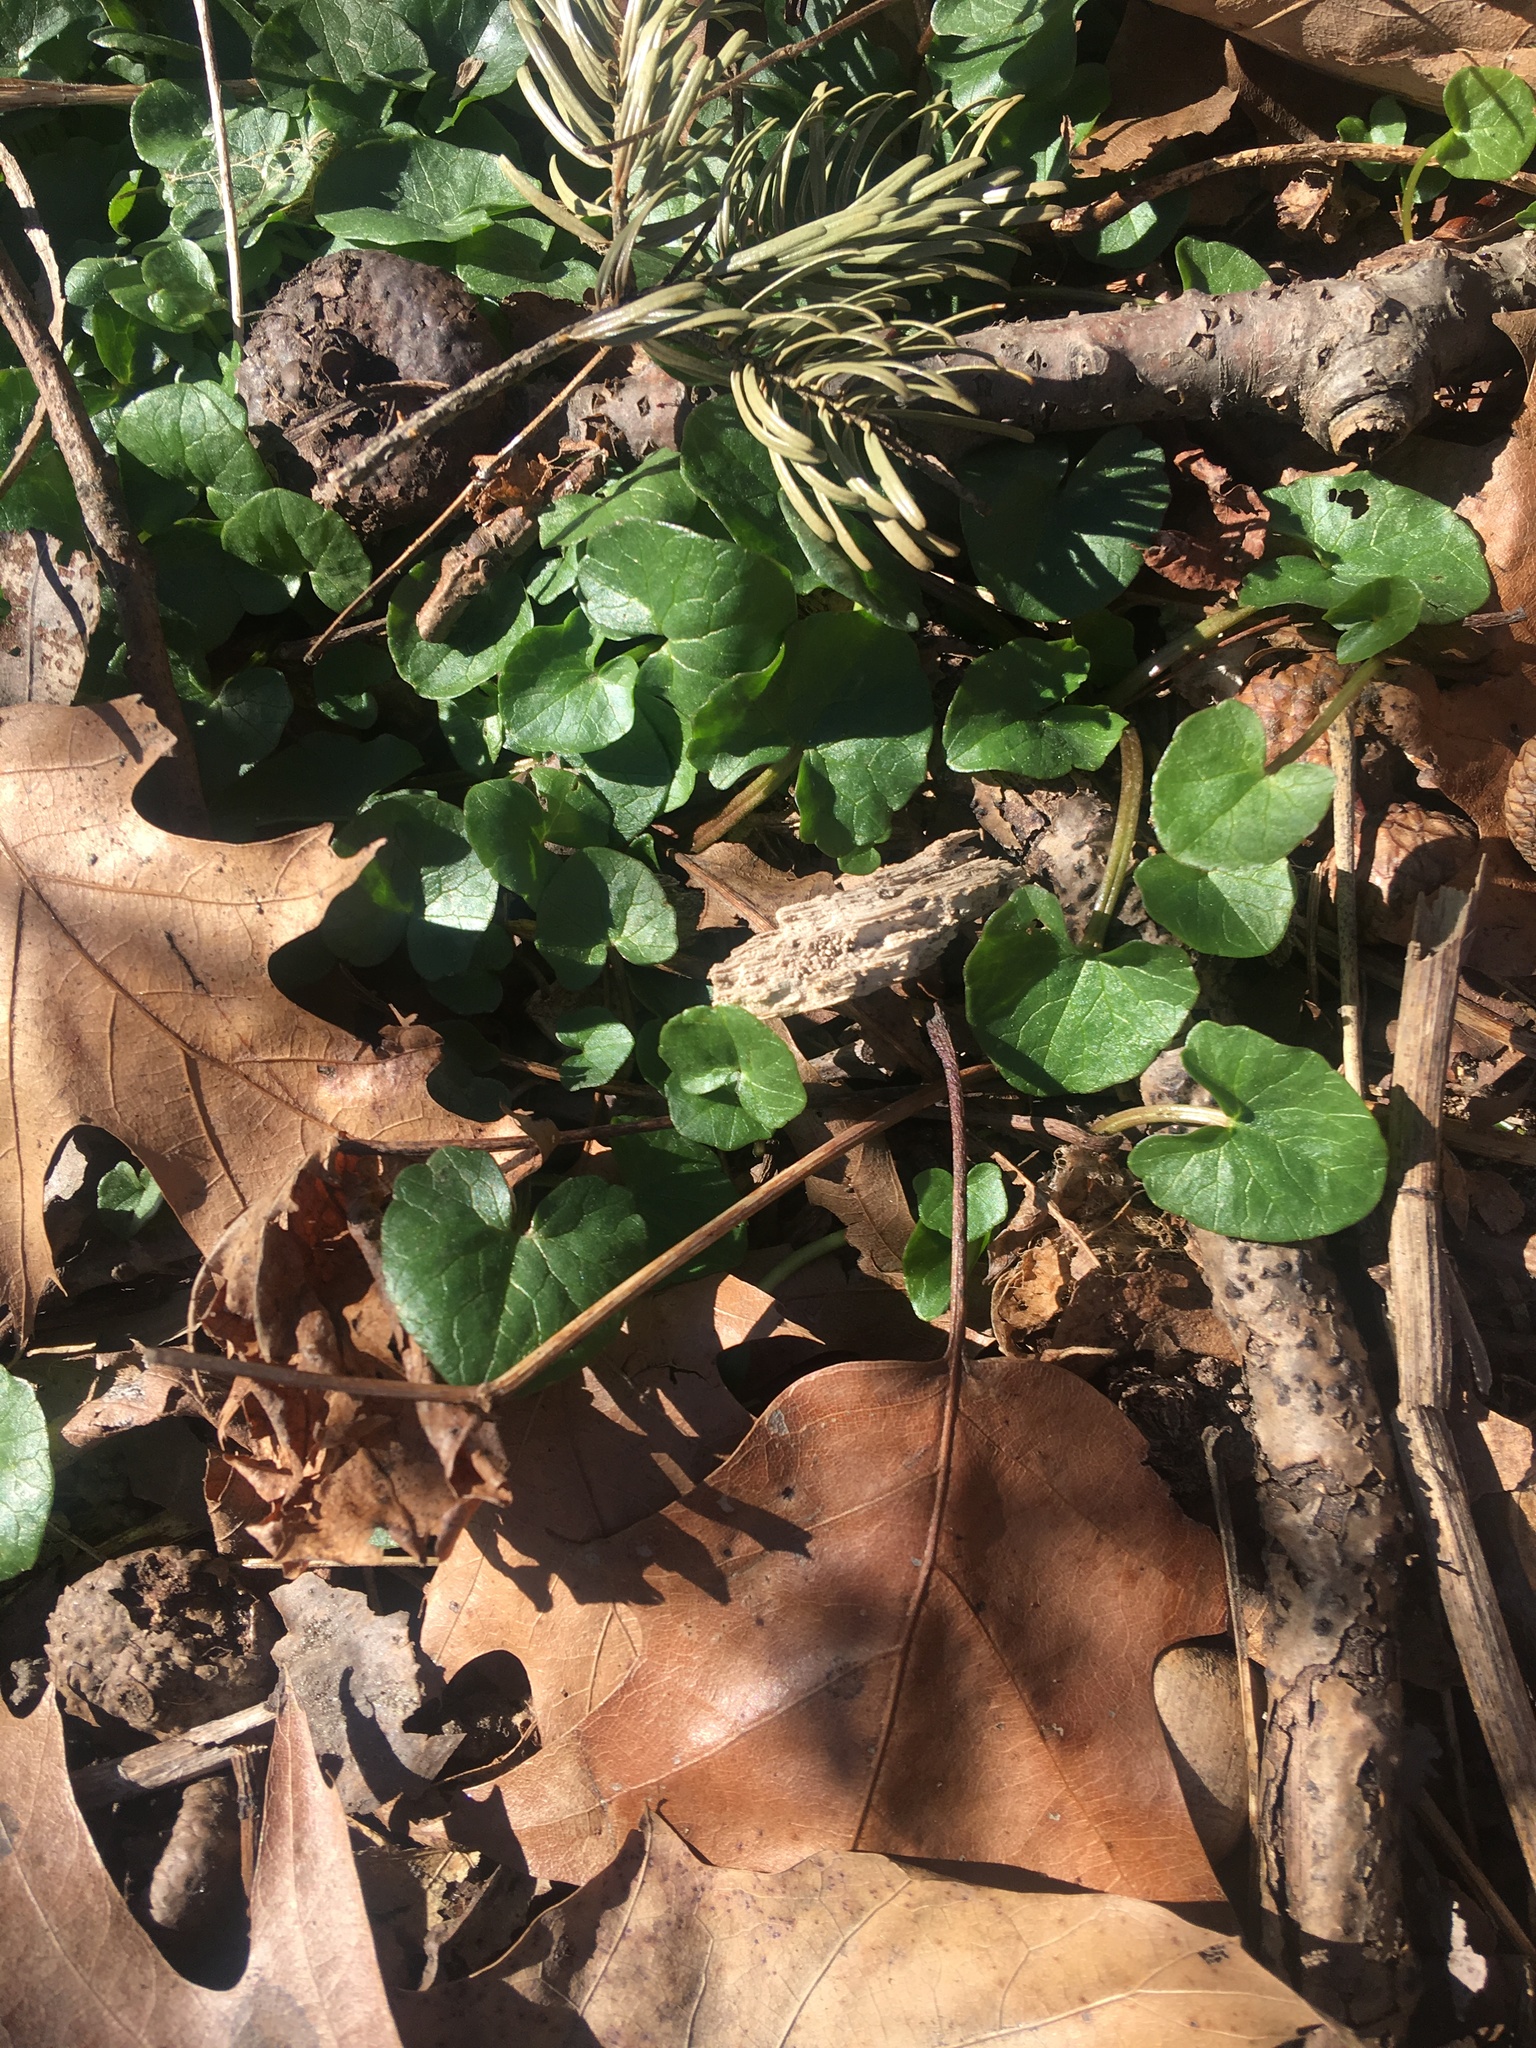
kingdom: Plantae
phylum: Tracheophyta
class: Magnoliopsida
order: Ranunculales
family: Ranunculaceae
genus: Ficaria
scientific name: Ficaria verna
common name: Lesser celandine
